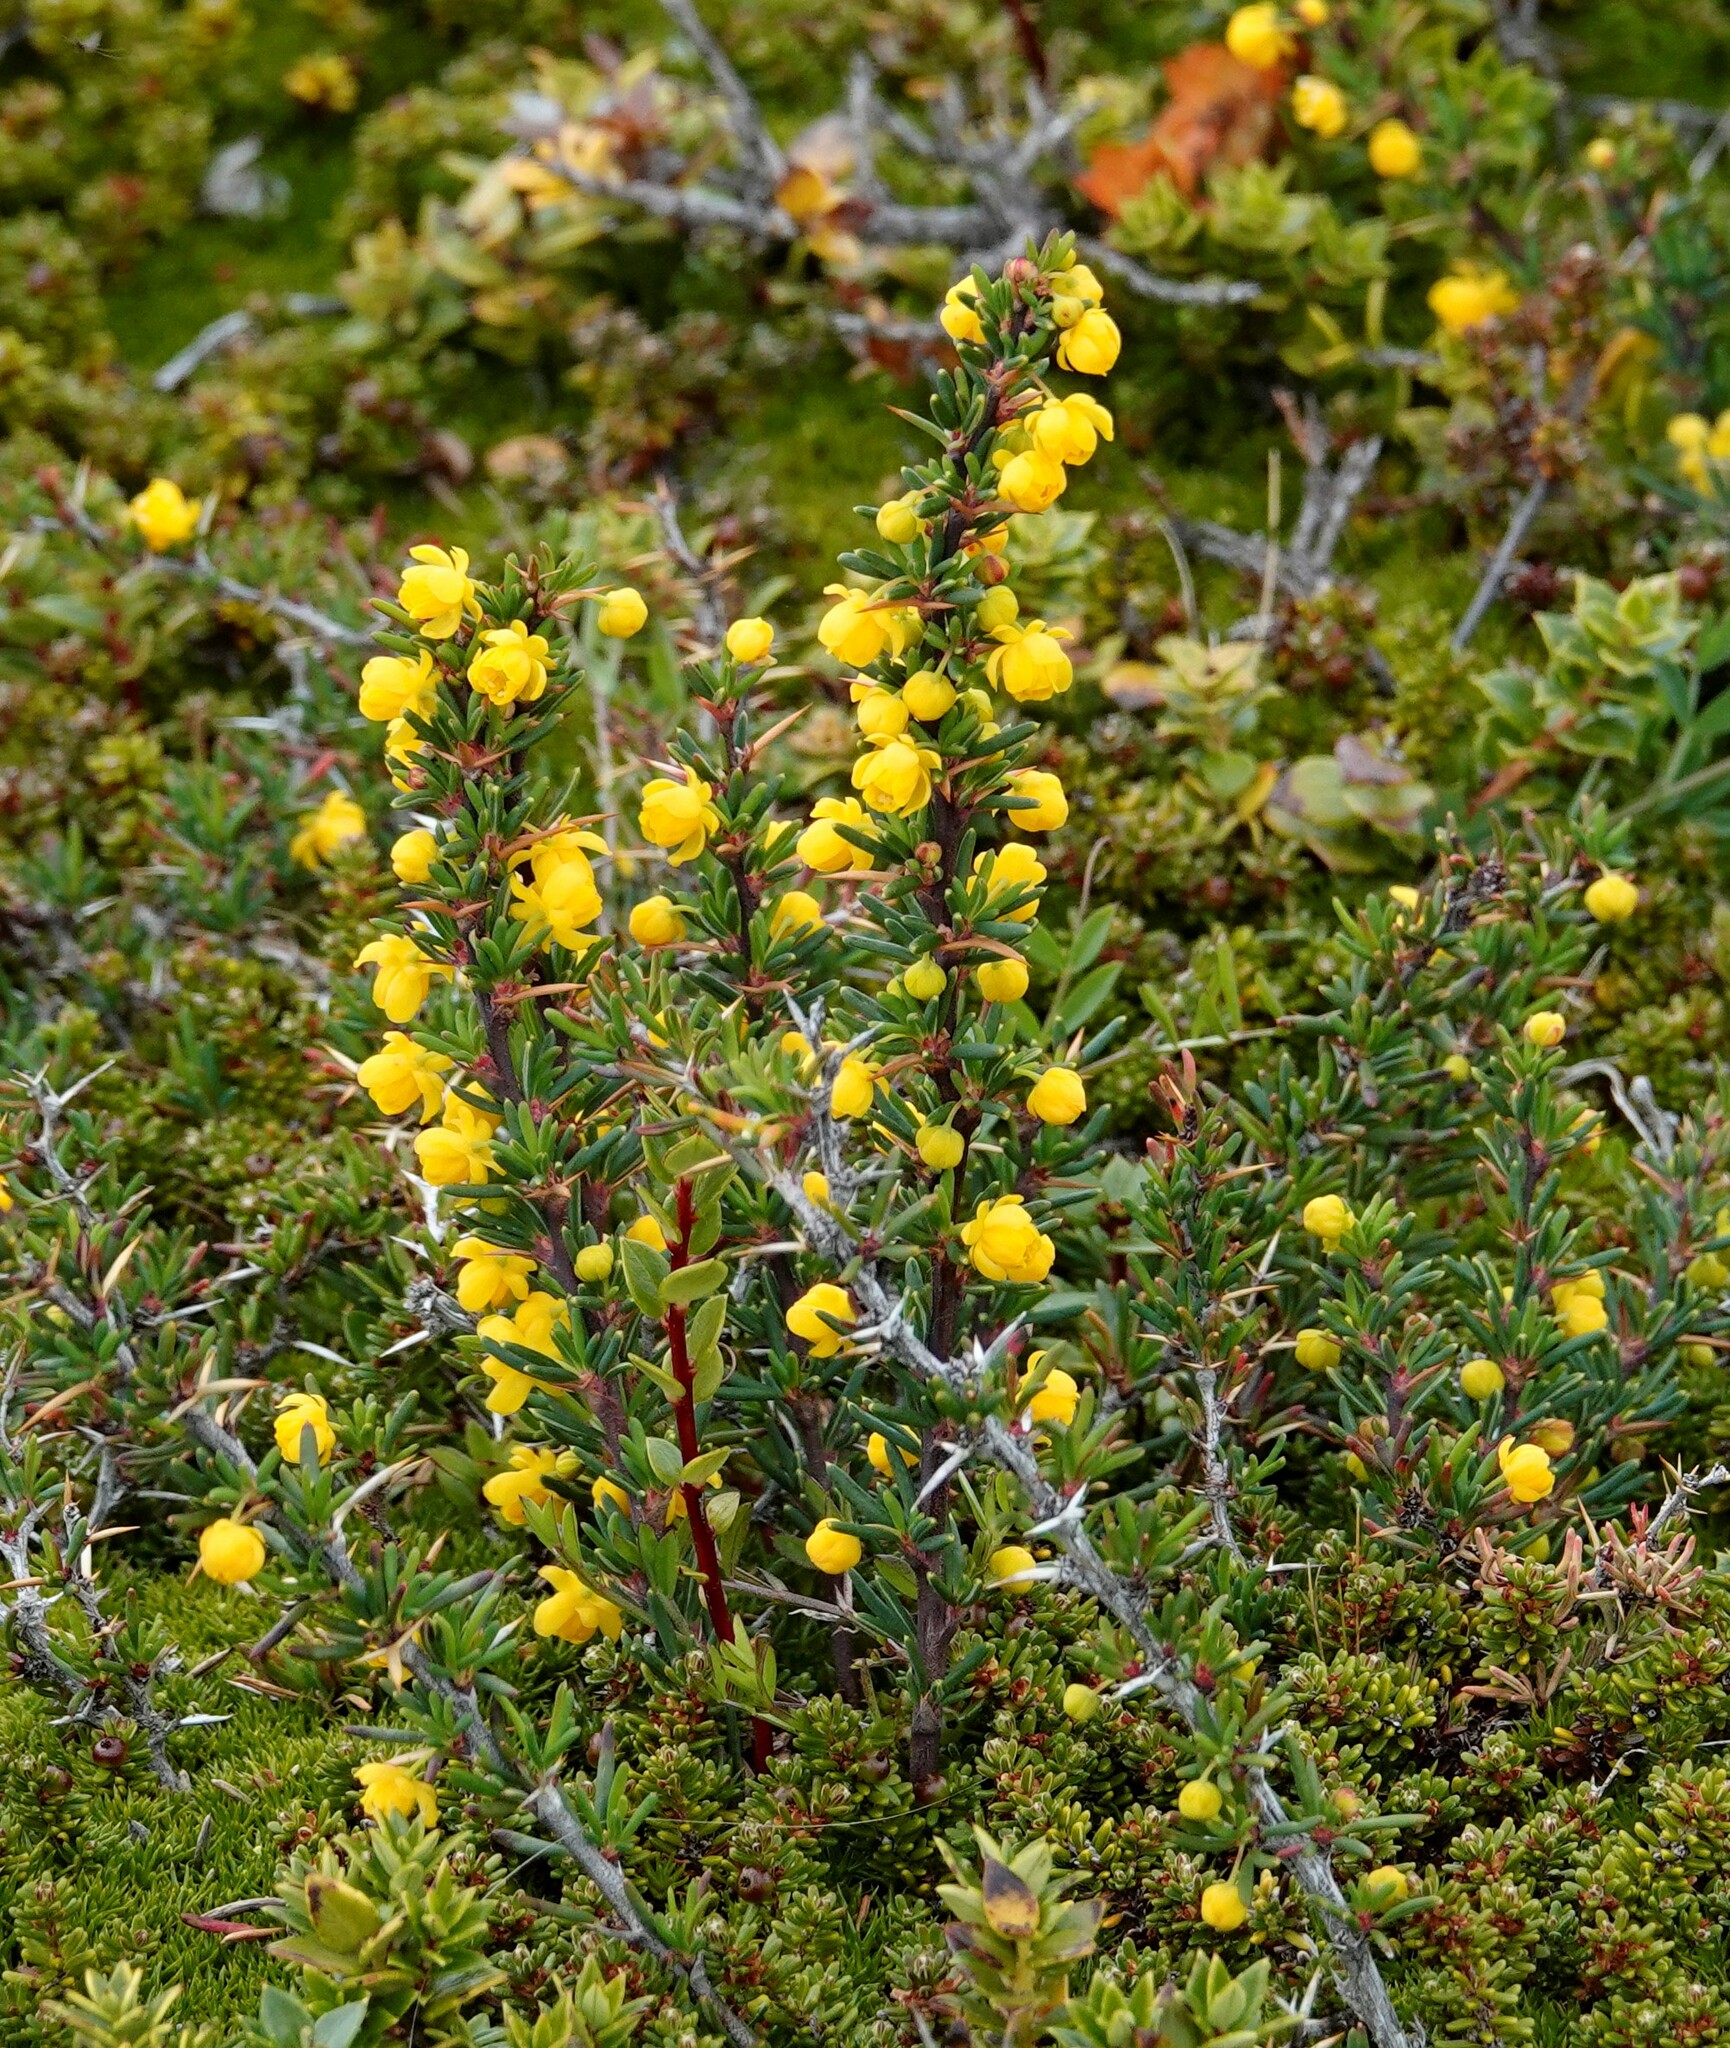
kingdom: Plantae
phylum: Tracheophyta
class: Magnoliopsida
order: Ranunculales
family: Berberidaceae
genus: Berberis
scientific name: Berberis empetrifolia
